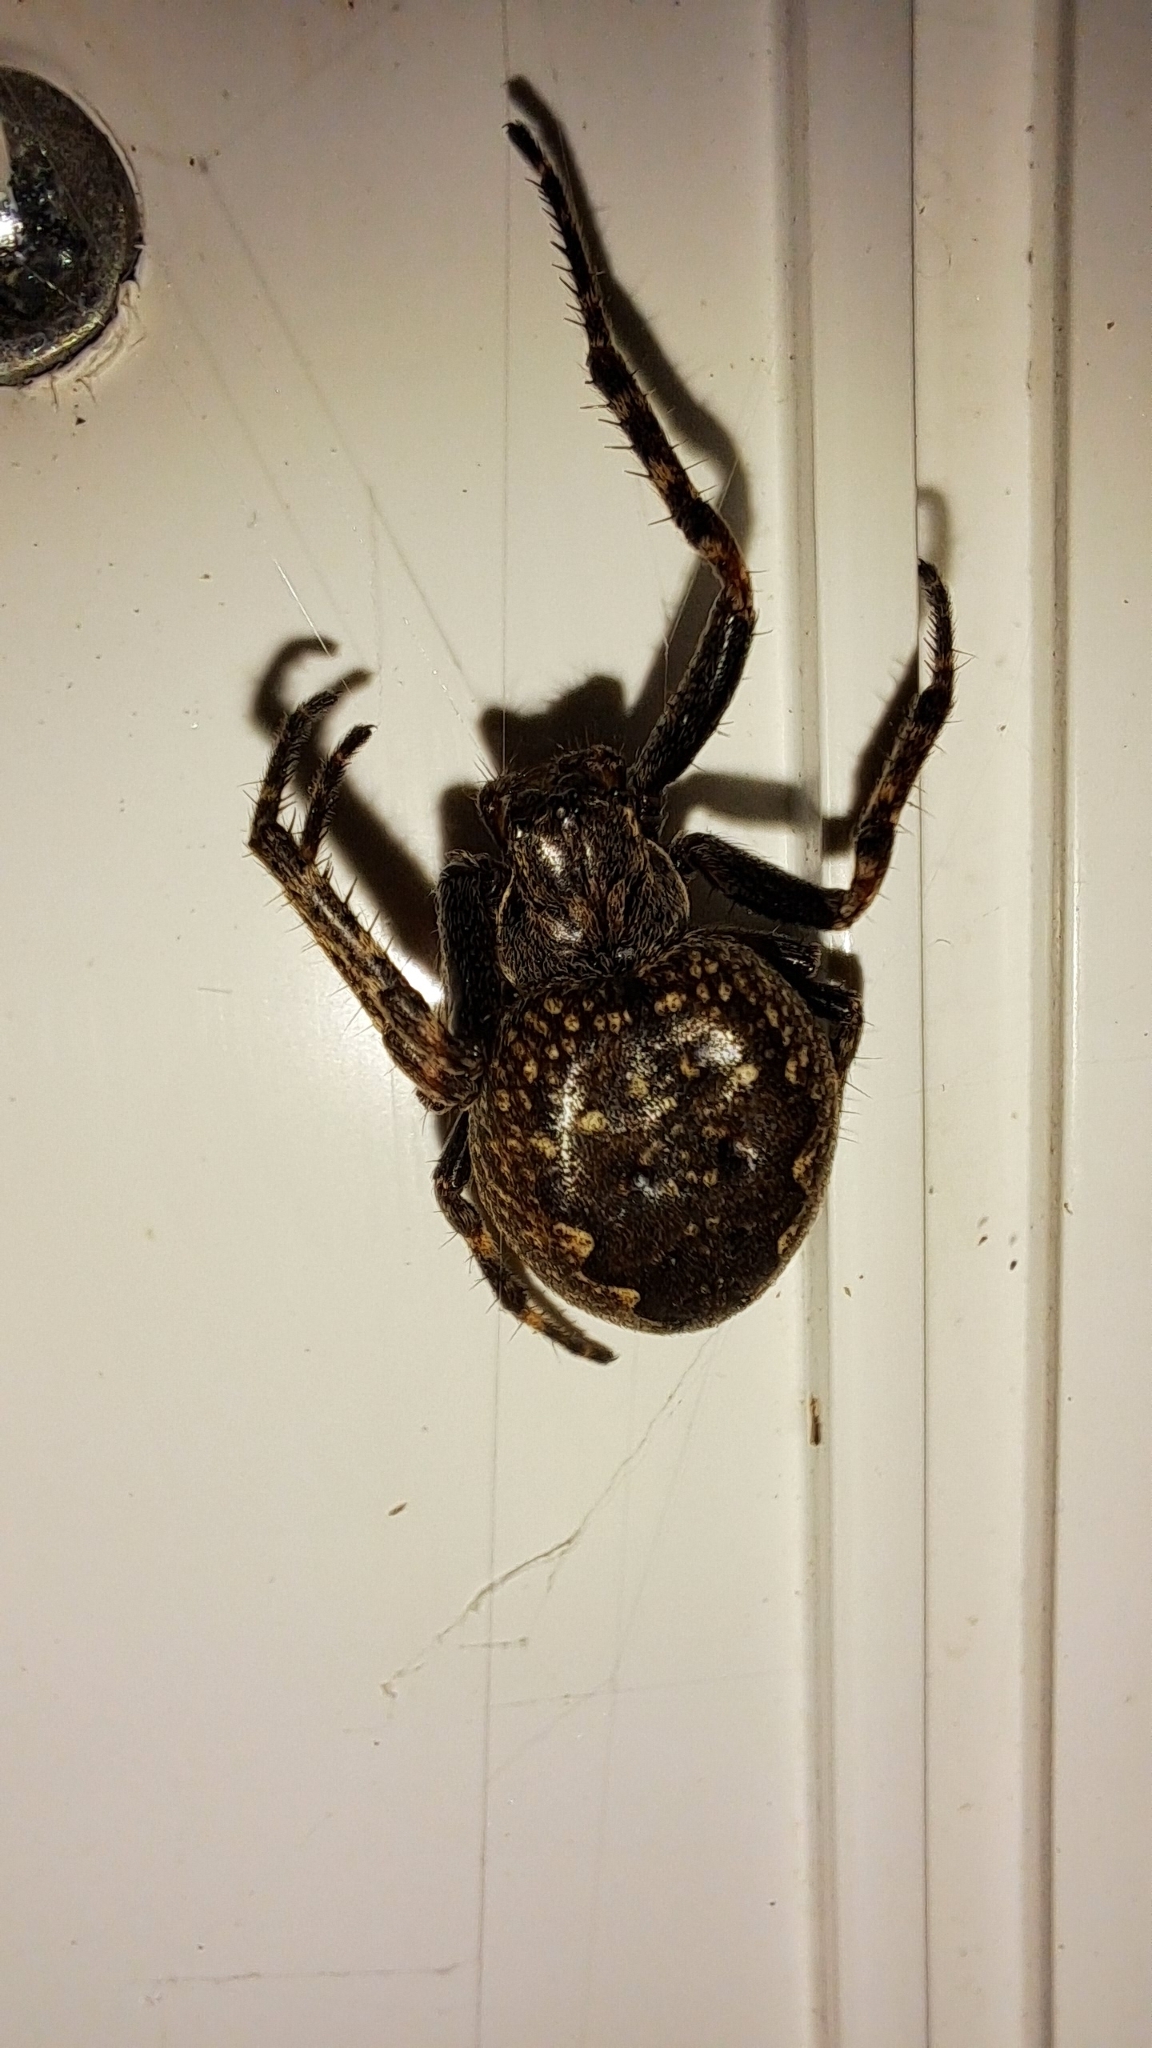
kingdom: Animalia
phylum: Arthropoda
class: Arachnida
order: Araneae
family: Araneidae
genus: Nuctenea
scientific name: Nuctenea umbratica
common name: Toad spider
